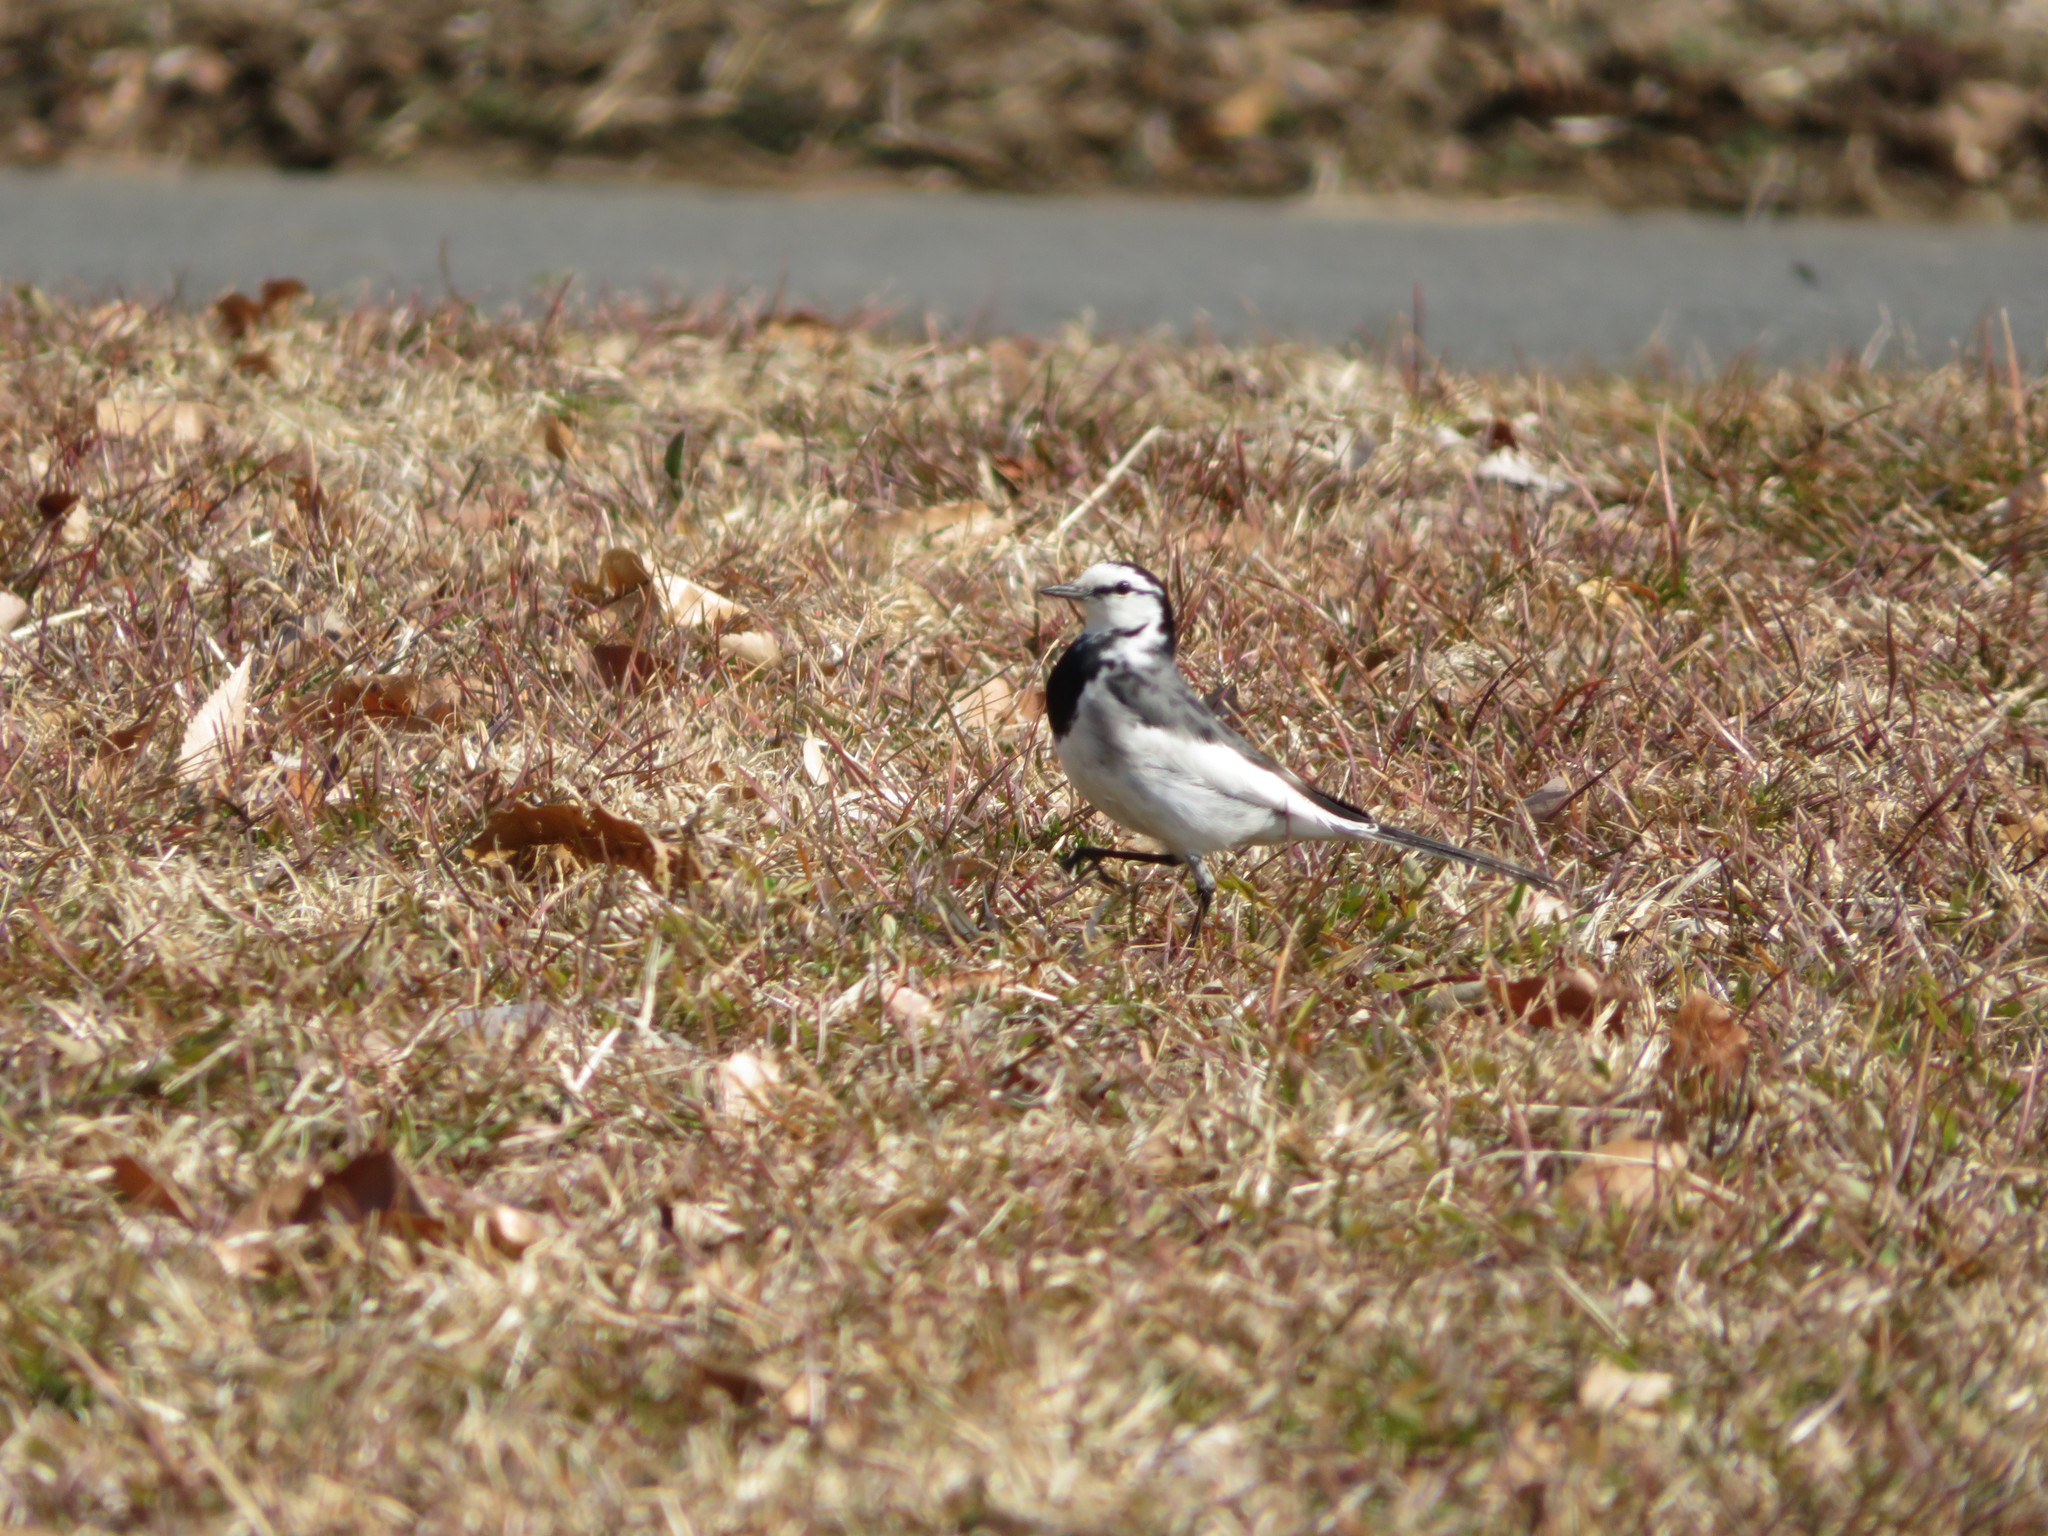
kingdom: Animalia
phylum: Chordata
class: Aves
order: Passeriformes
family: Motacillidae
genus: Motacilla
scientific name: Motacilla alba
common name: White wagtail
